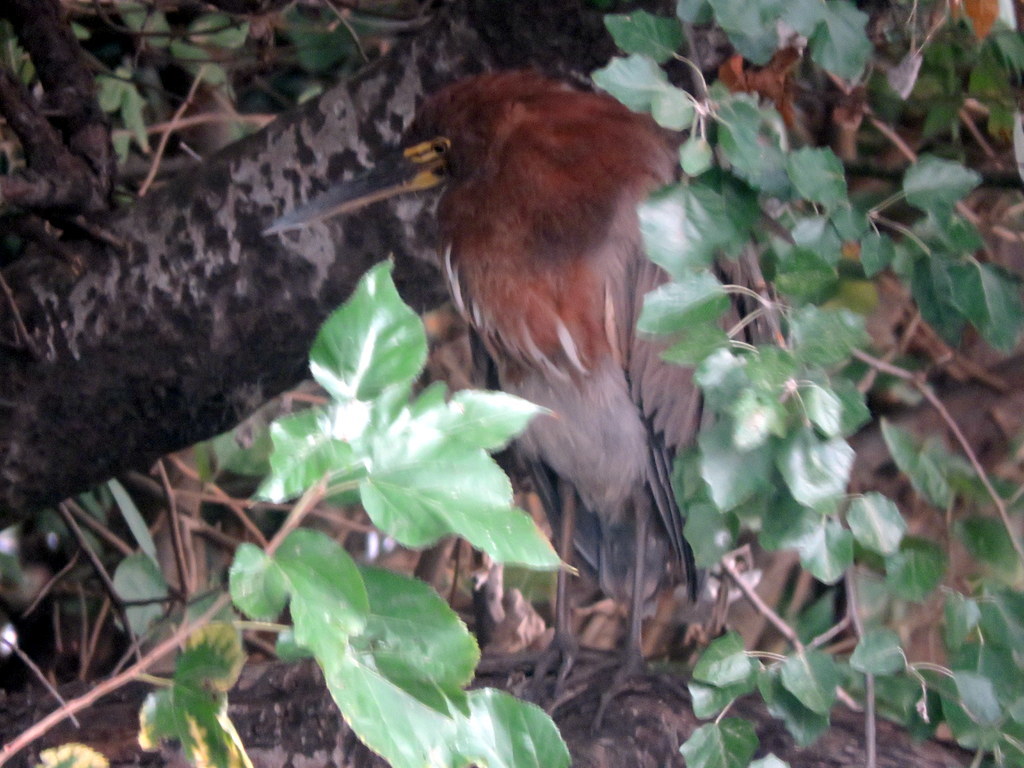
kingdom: Animalia
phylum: Chordata
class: Aves
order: Pelecaniformes
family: Ardeidae
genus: Tigrisoma
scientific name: Tigrisoma lineatum
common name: Rufescent tiger-heron
